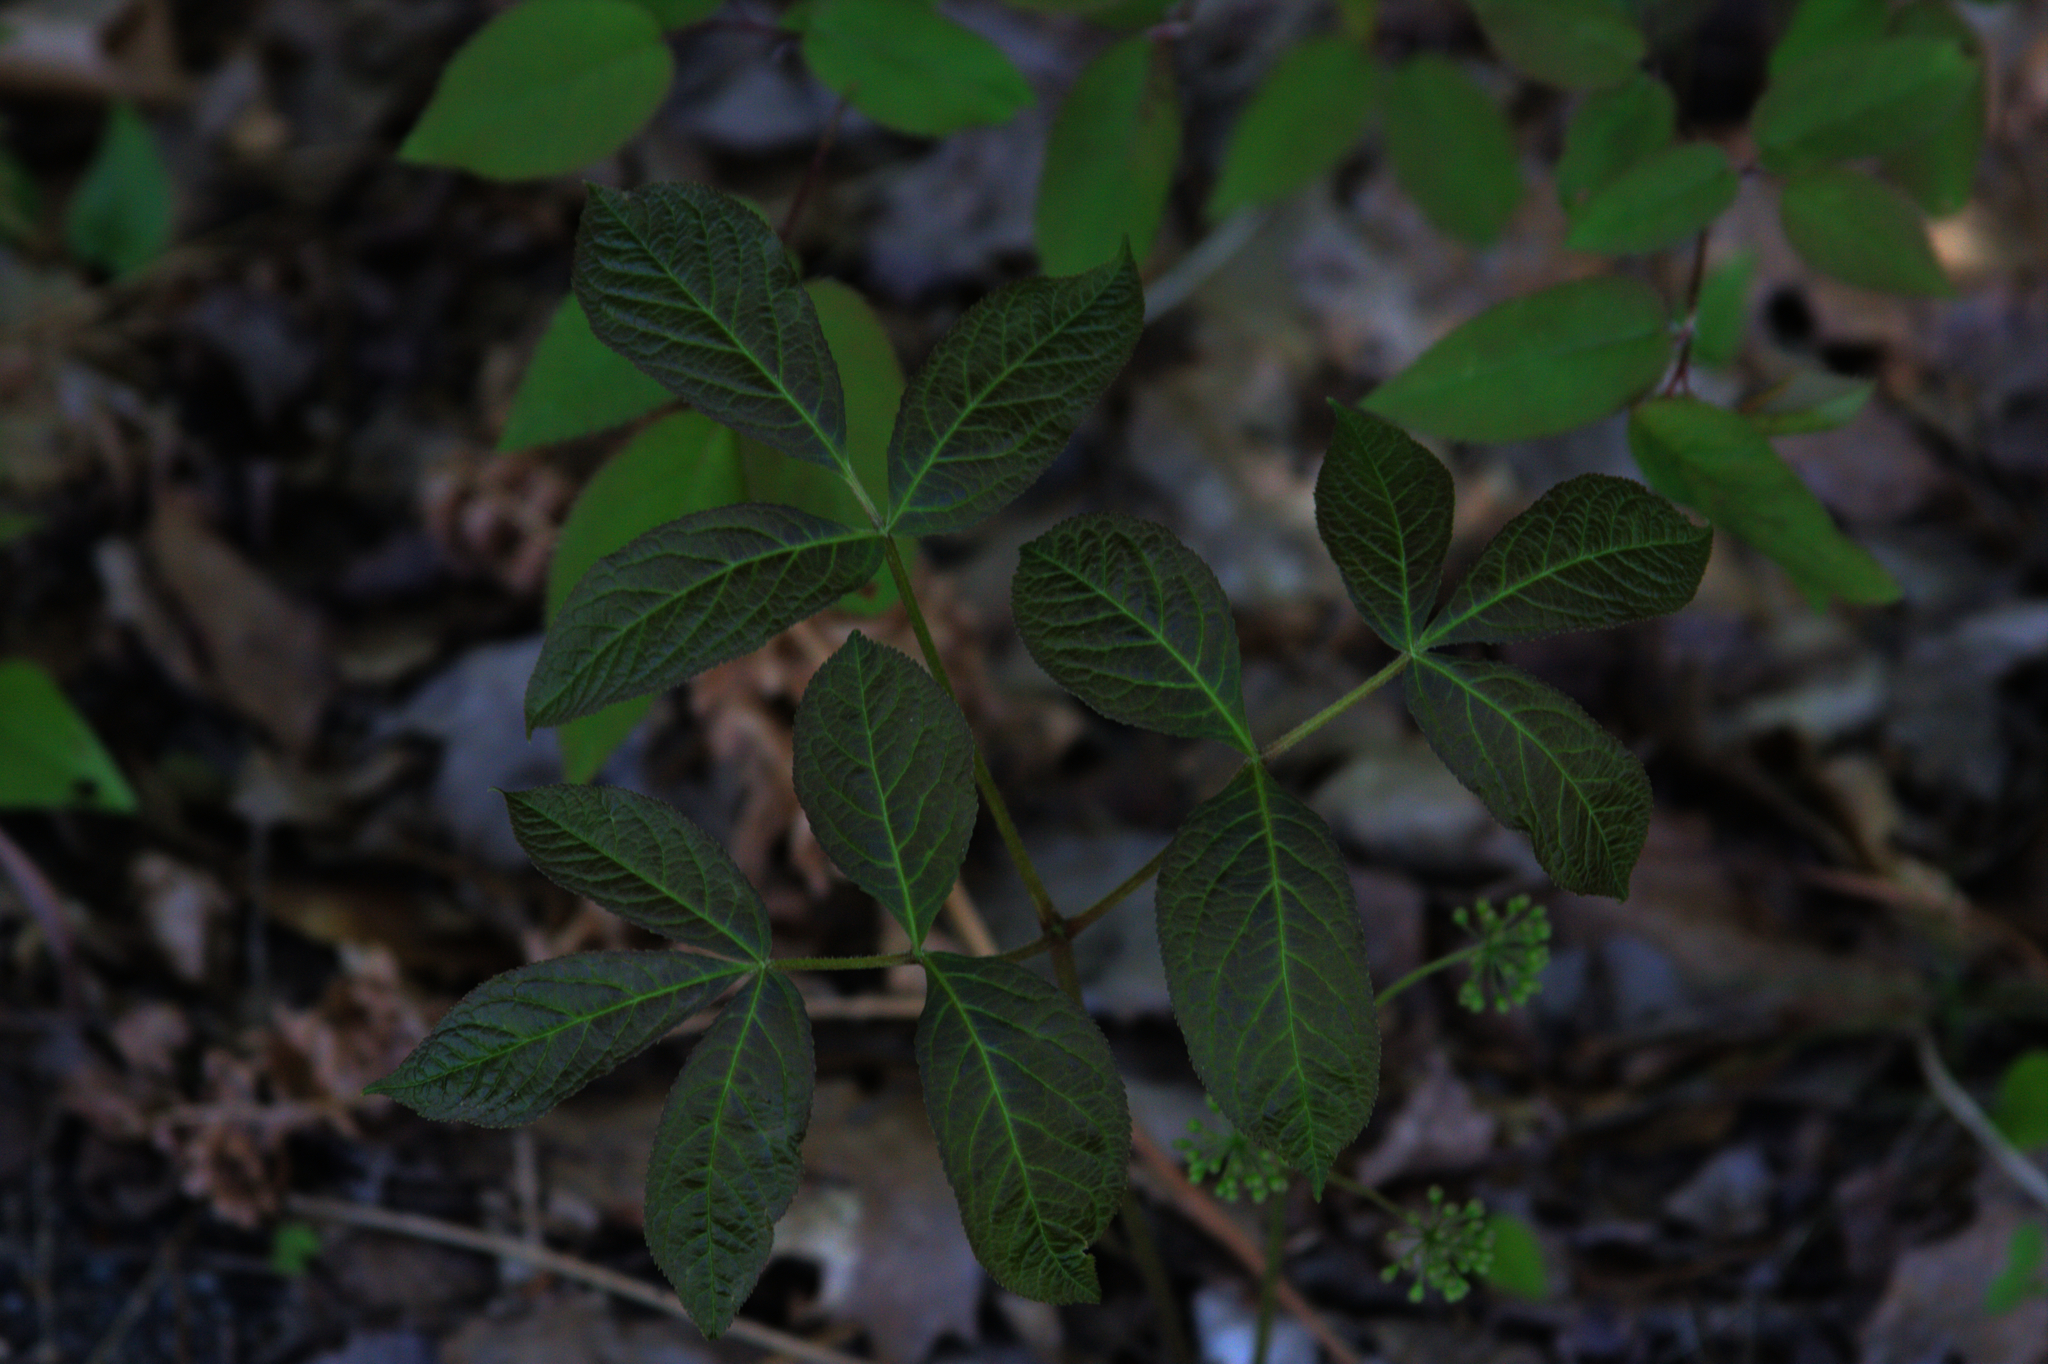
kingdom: Plantae
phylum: Tracheophyta
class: Magnoliopsida
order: Apiales
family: Araliaceae
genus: Aralia
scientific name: Aralia nudicaulis
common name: Wild sarsaparilla
